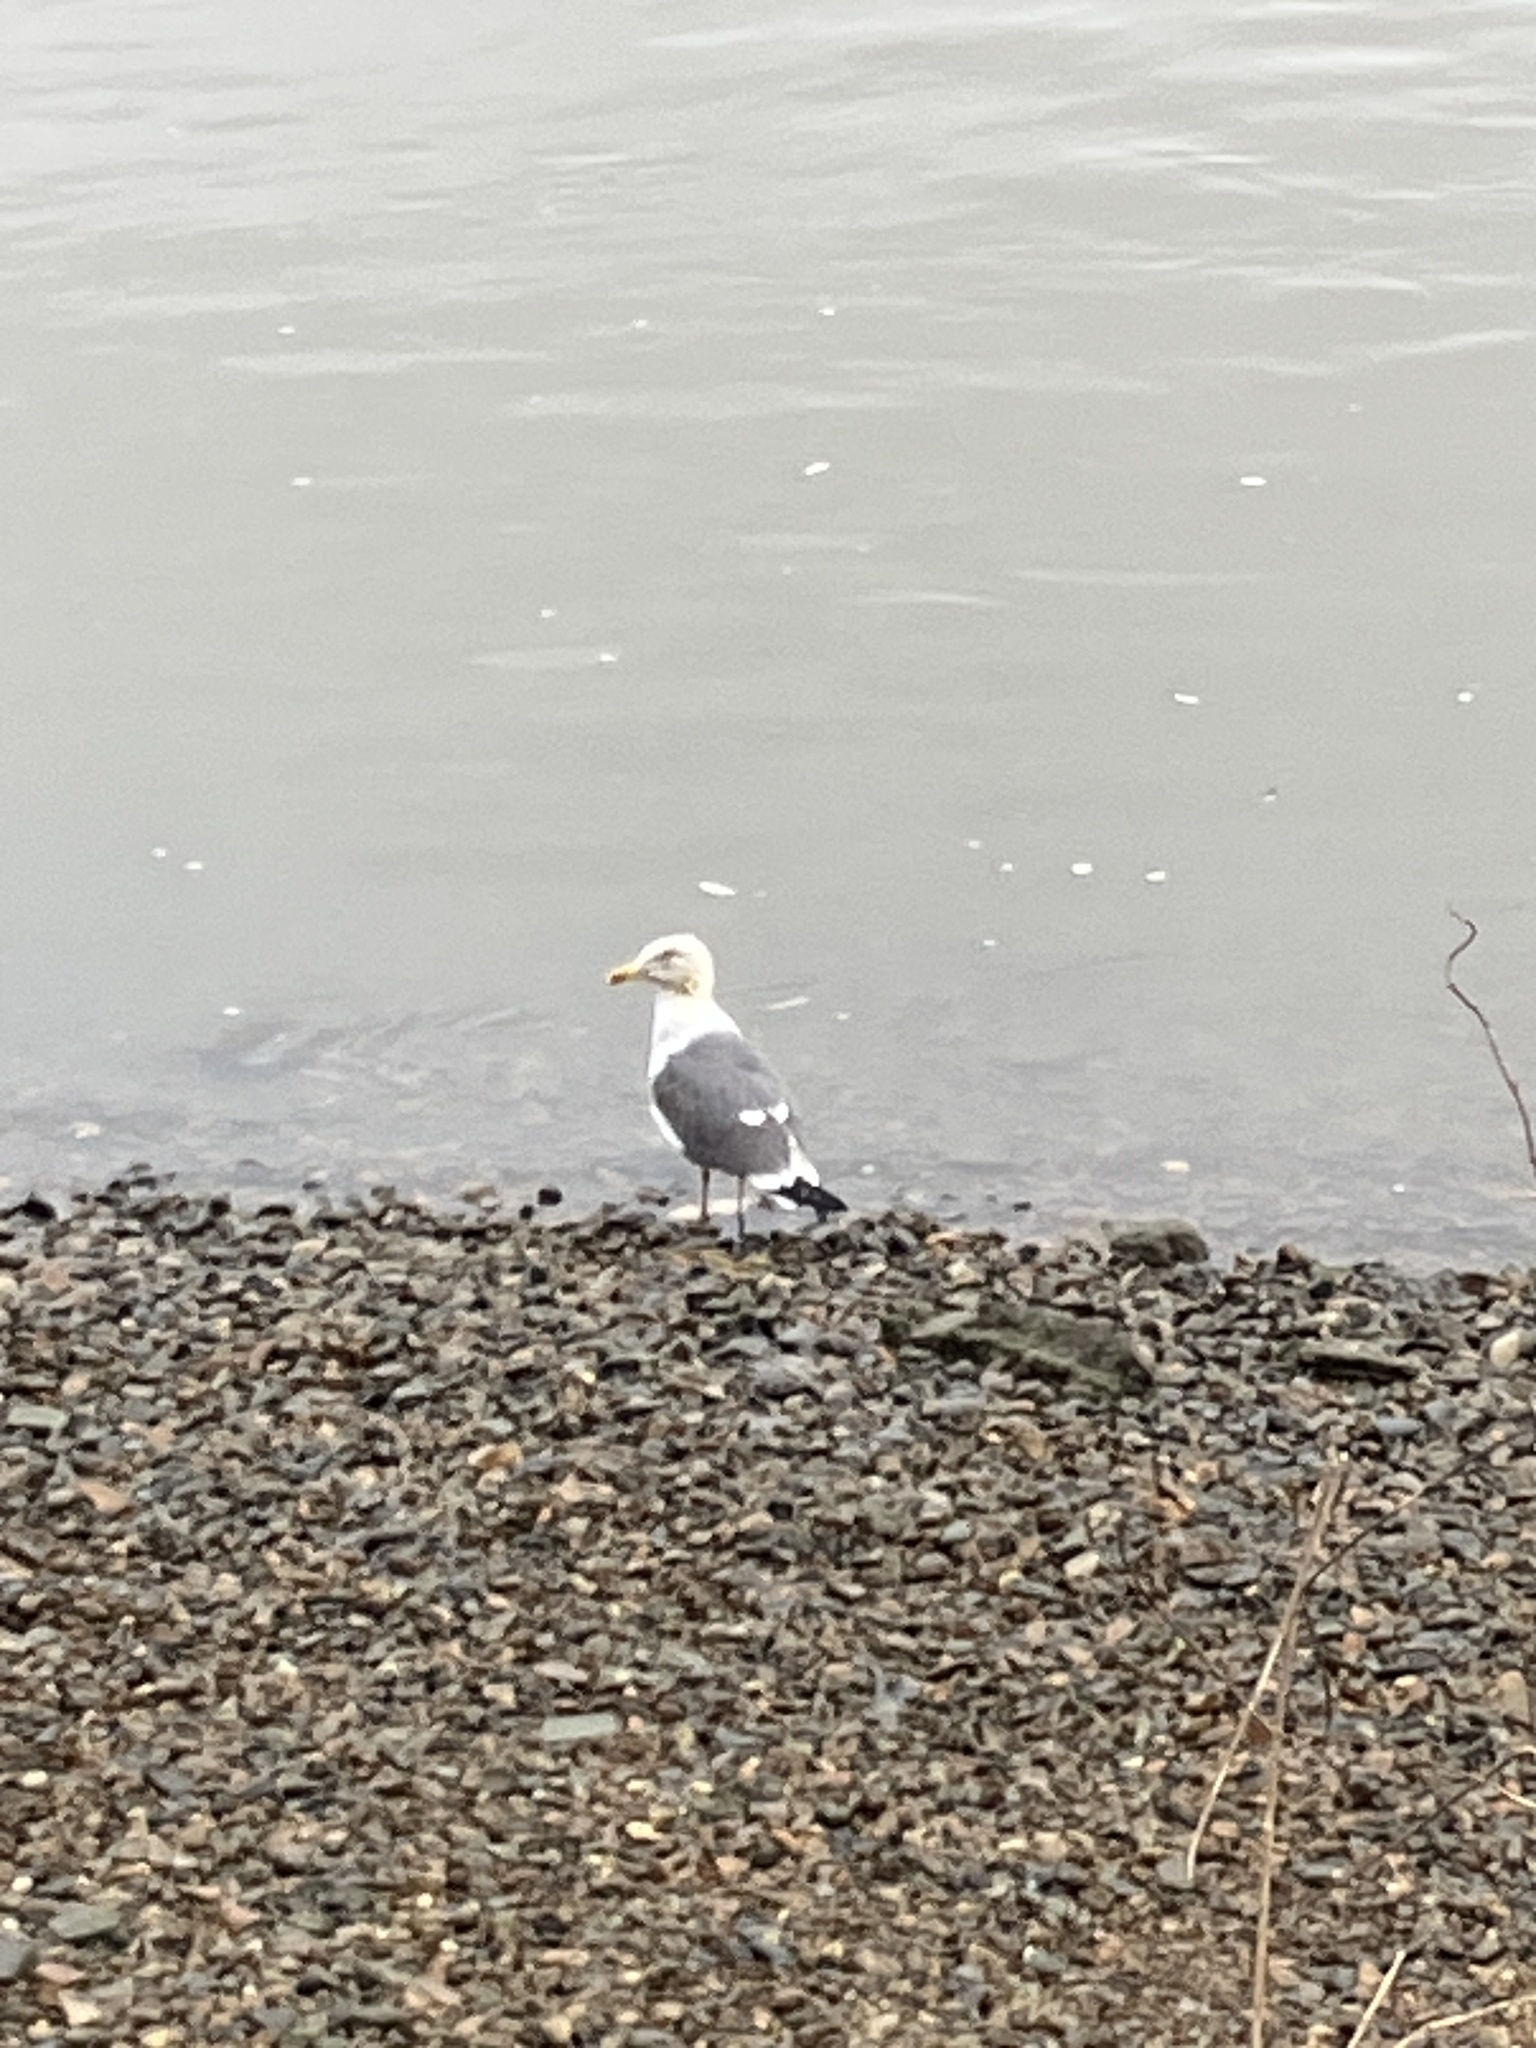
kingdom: Animalia
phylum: Chordata
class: Aves
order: Charadriiformes
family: Laridae
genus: Larus
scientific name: Larus fuscus
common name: Lesser black-backed gull
